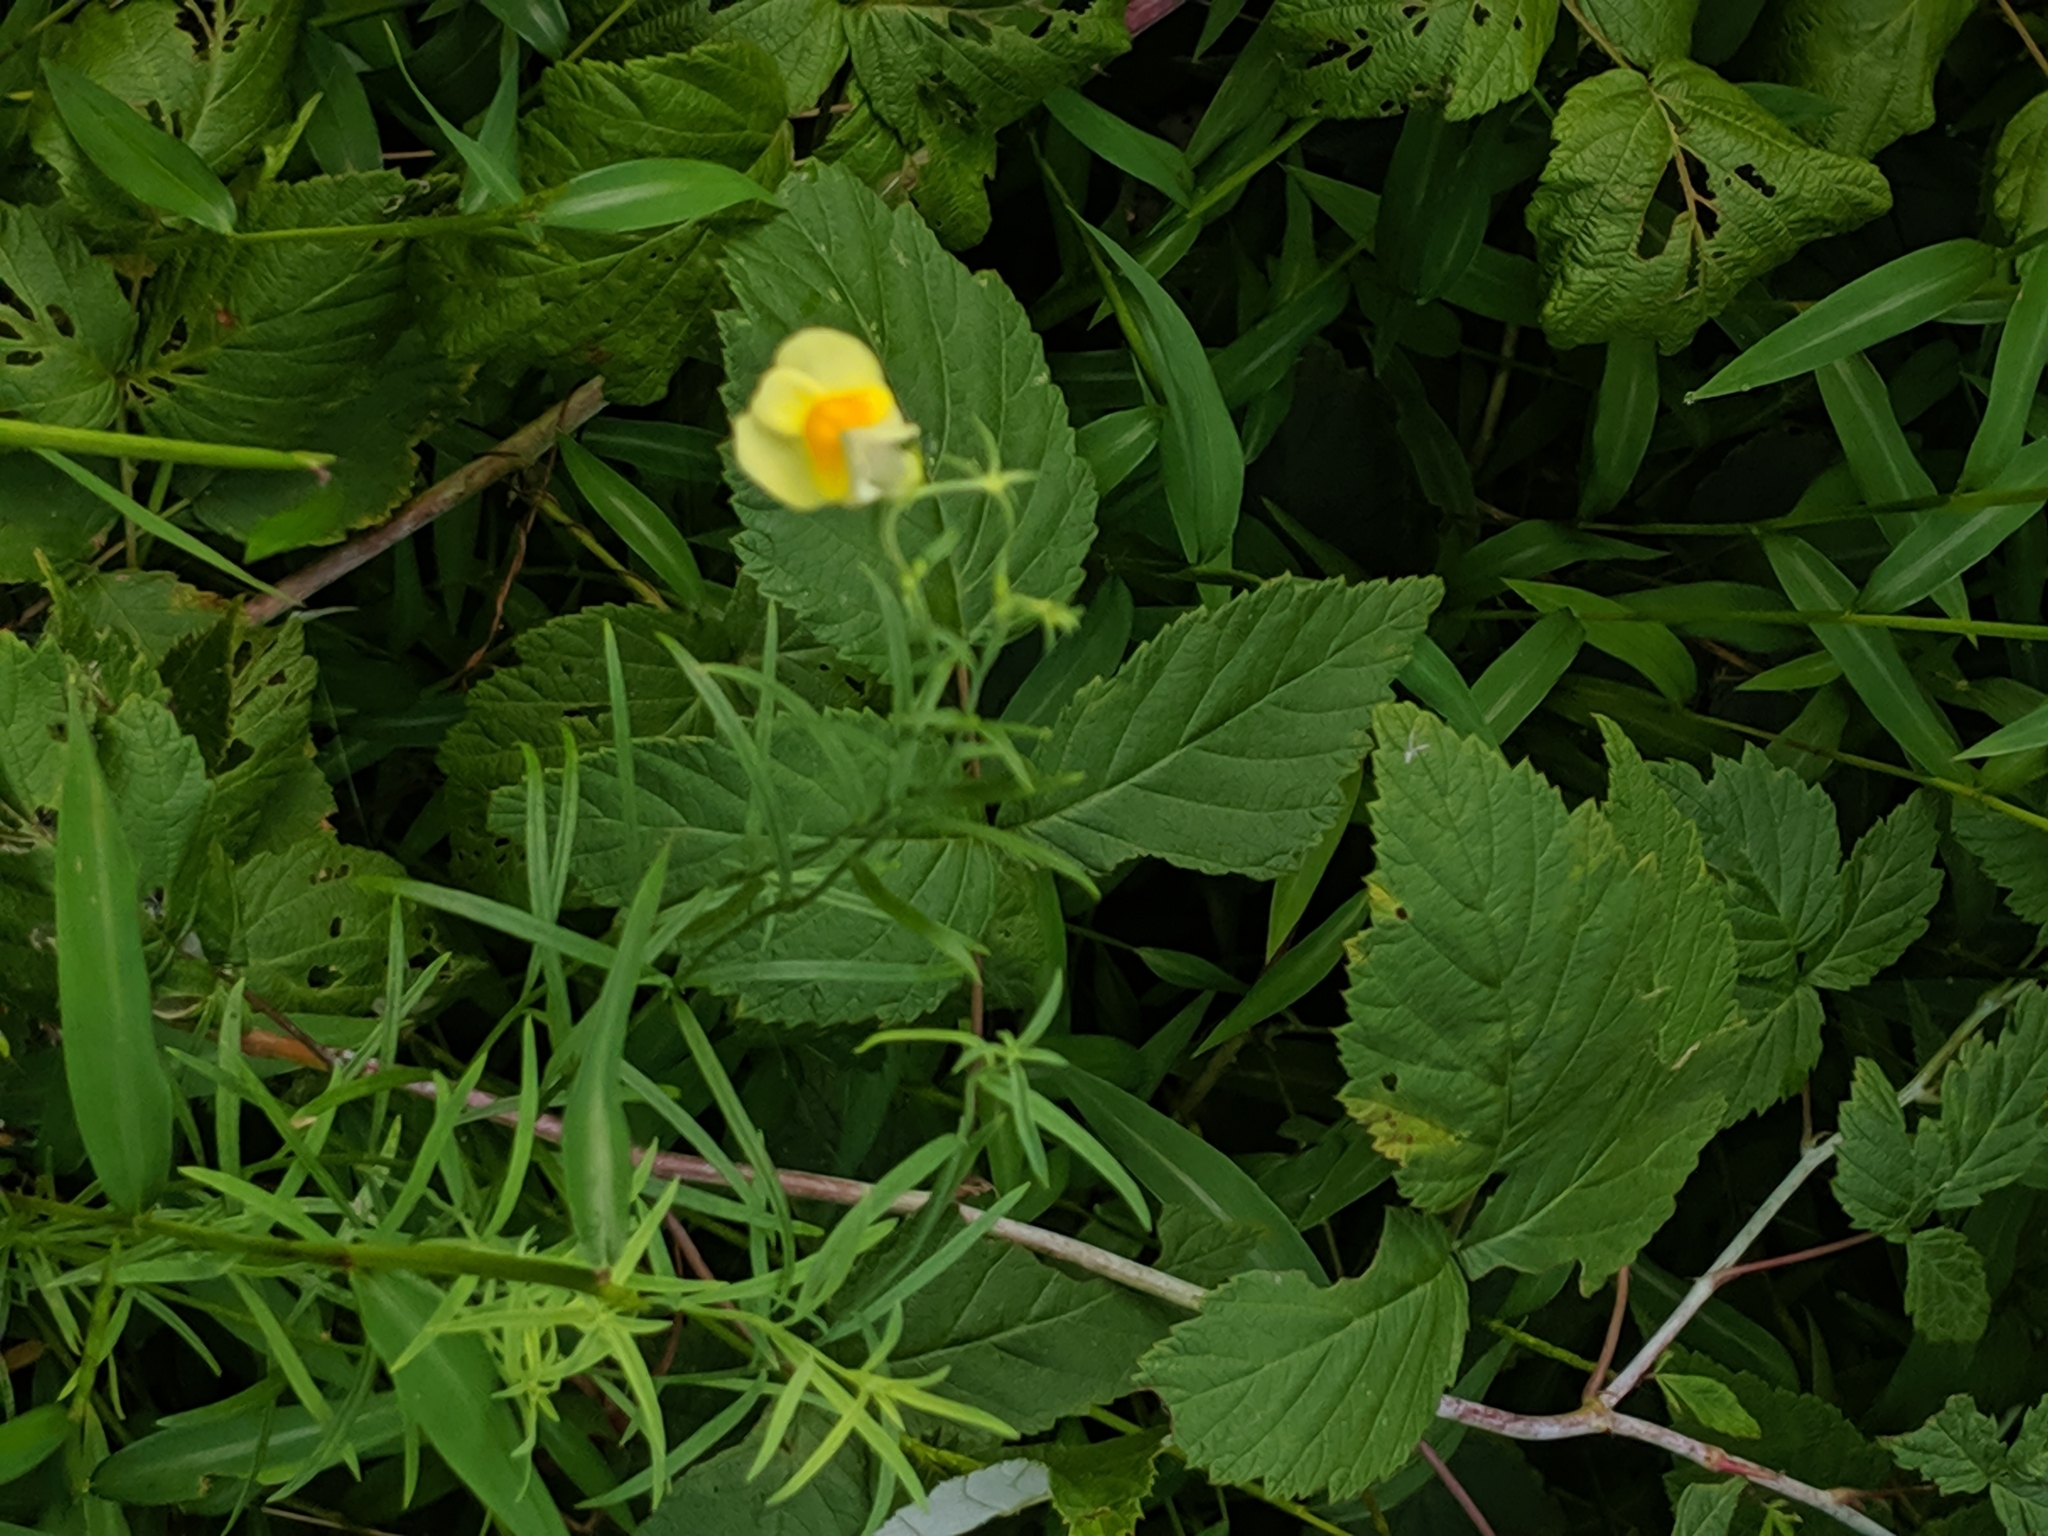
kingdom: Plantae
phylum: Tracheophyta
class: Magnoliopsida
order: Lamiales
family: Plantaginaceae
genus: Linaria
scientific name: Linaria vulgaris
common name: Butter and eggs
